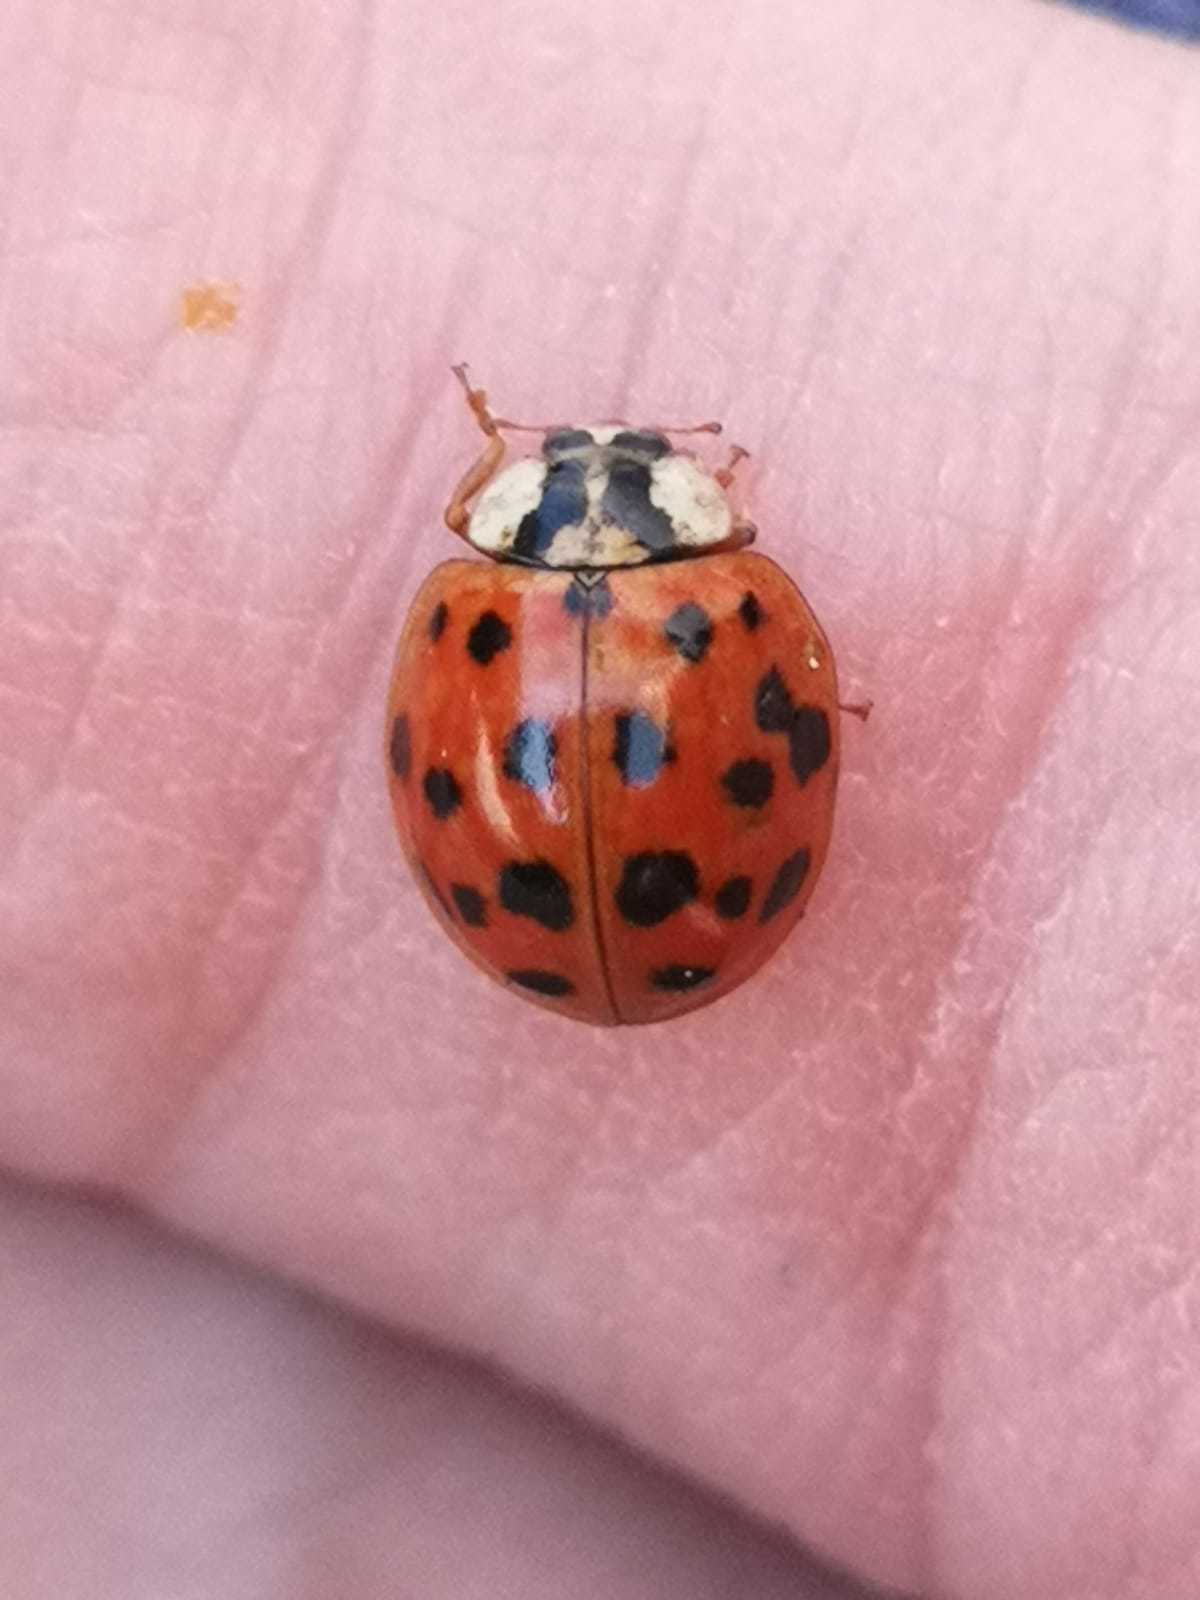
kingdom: Animalia
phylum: Arthropoda
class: Insecta
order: Coleoptera
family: Coccinellidae
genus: Harmonia
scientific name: Harmonia axyridis
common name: Harlequin ladybird
